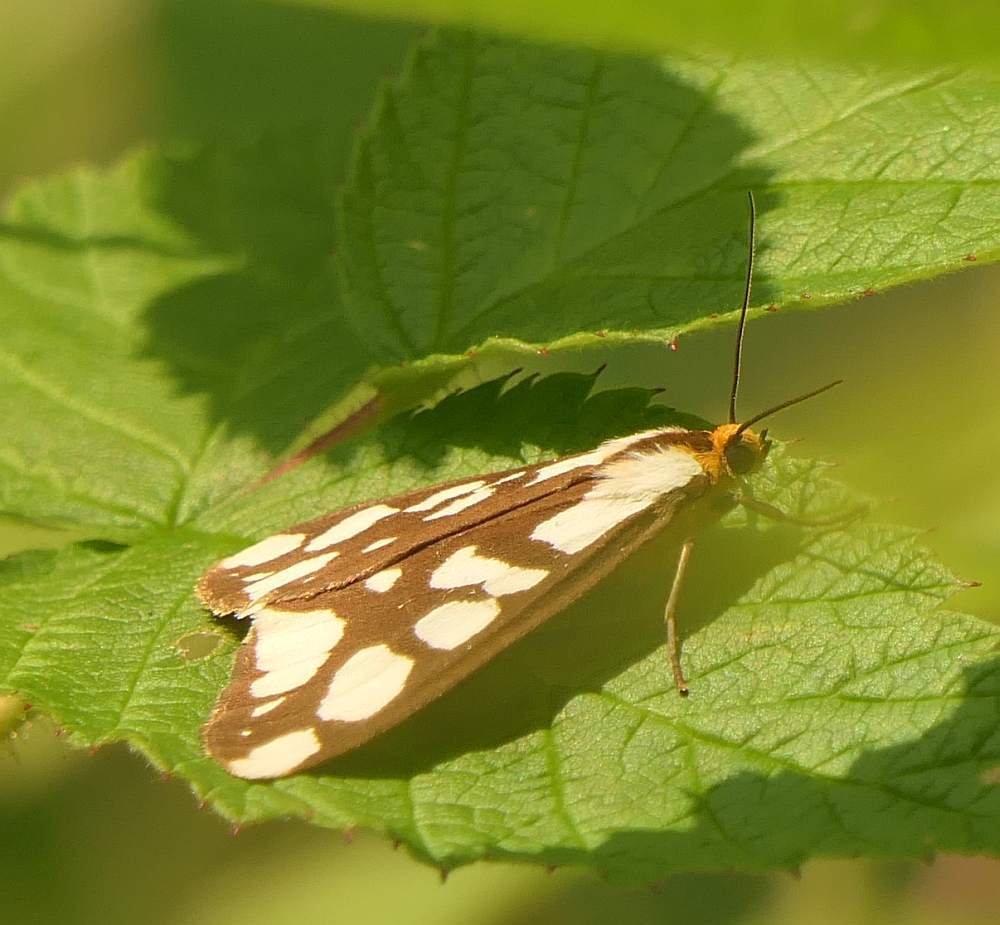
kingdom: Animalia
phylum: Arthropoda
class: Insecta
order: Lepidoptera
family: Erebidae
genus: Haploa
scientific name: Haploa confusa
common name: Confused haploa moth
